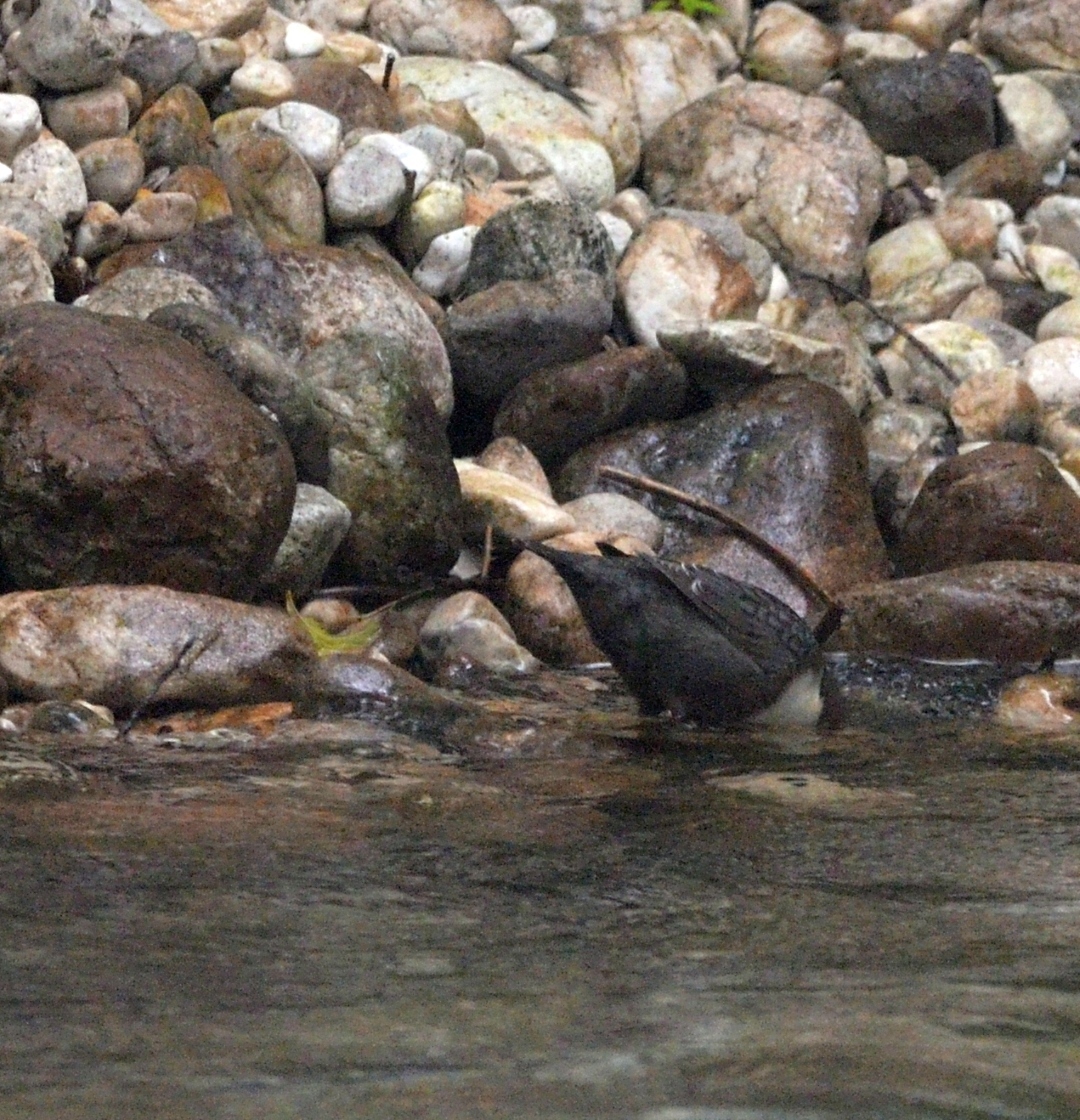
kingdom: Animalia
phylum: Chordata
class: Aves
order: Passeriformes
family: Cinclidae
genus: Cinclus
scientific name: Cinclus cinclus
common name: White-throated dipper
